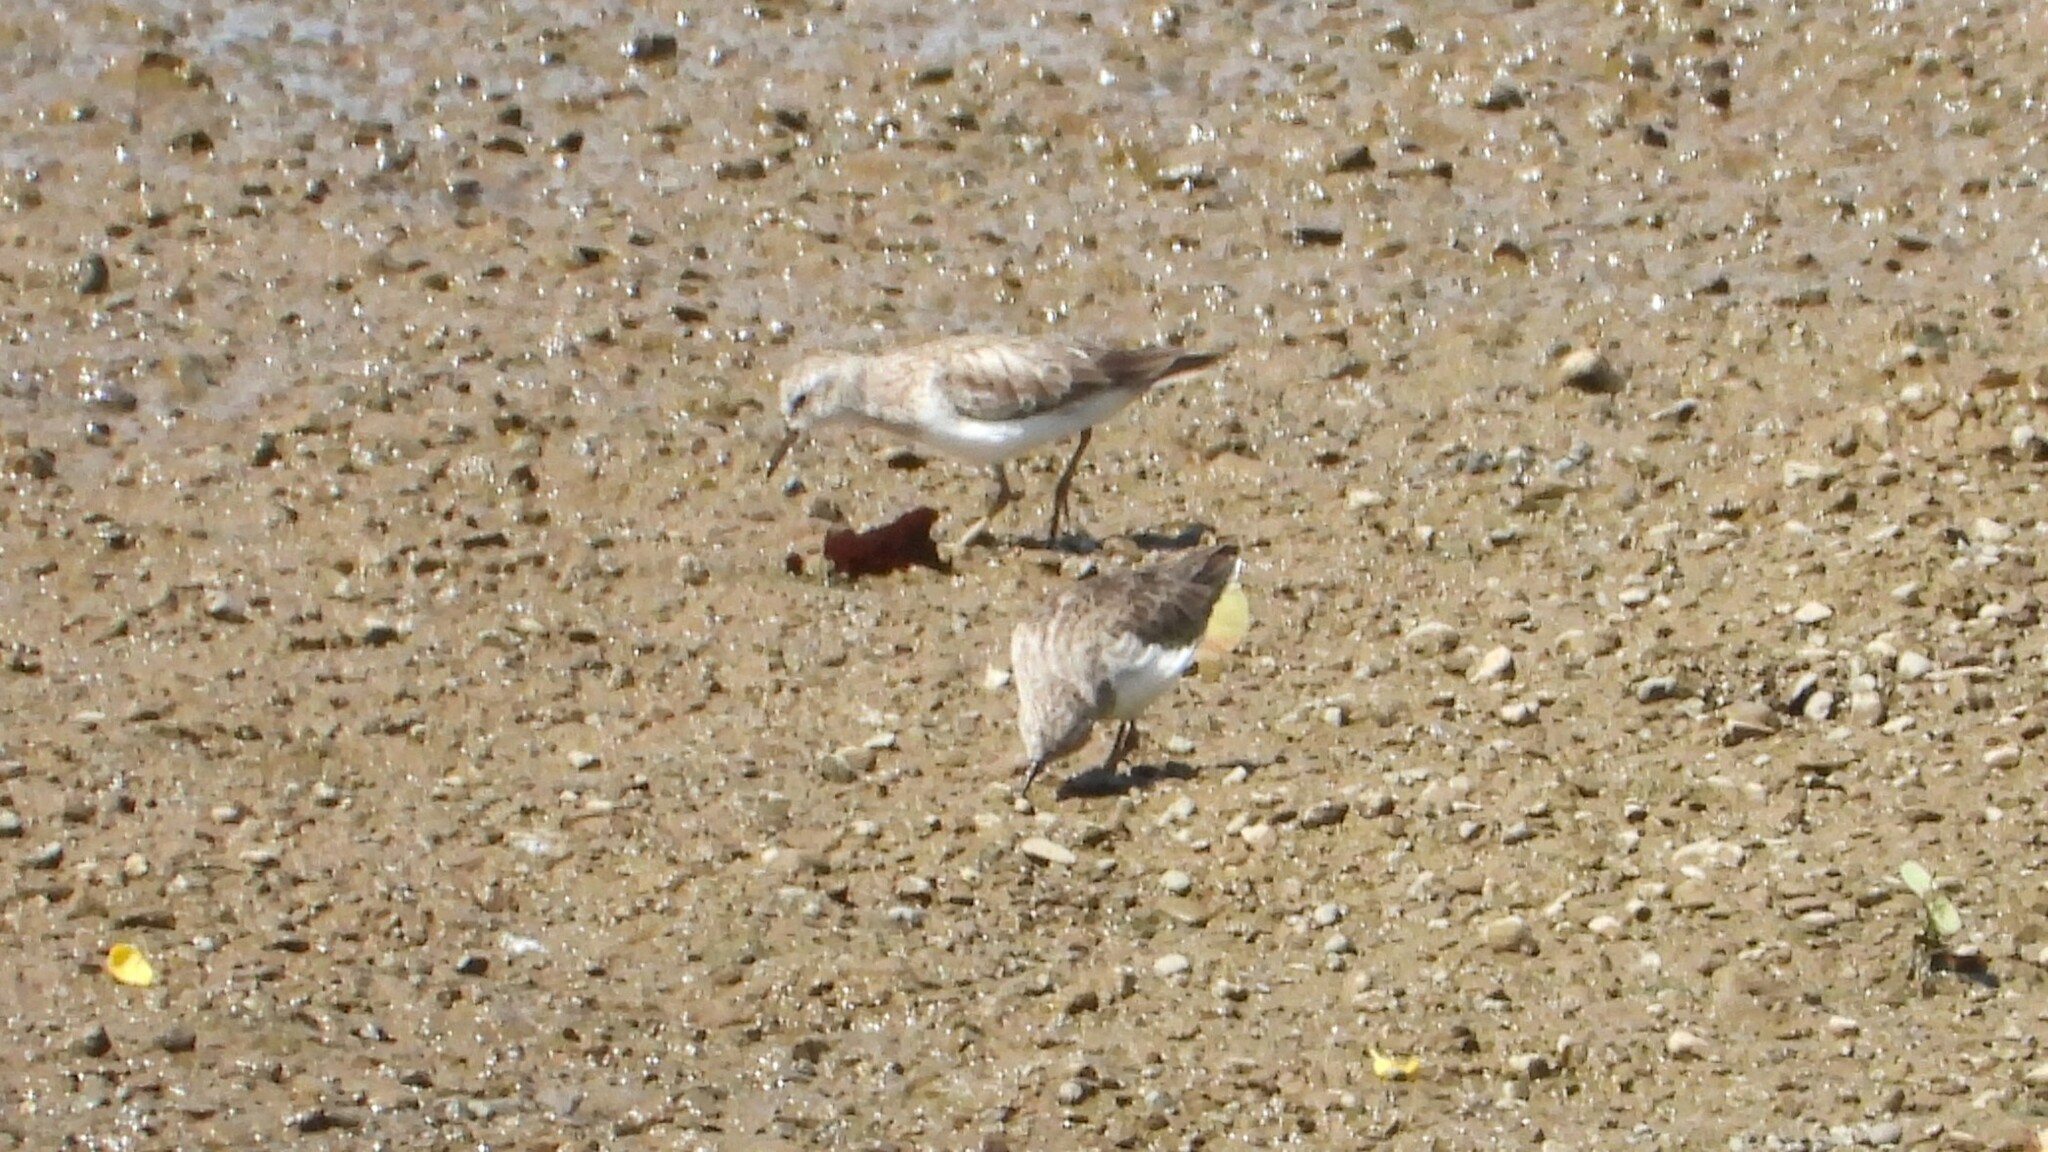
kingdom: Animalia
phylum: Chordata
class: Aves
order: Charadriiformes
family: Scolopacidae
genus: Calidris
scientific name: Calidris minutilla
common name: Least sandpiper
